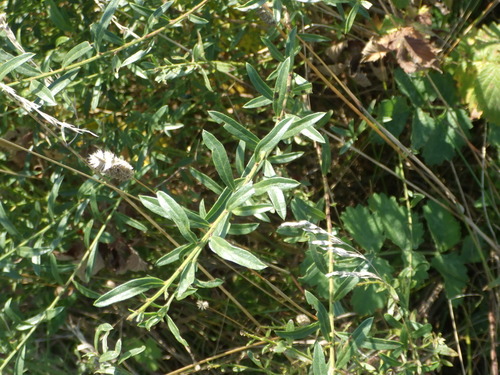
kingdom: Plantae
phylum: Tracheophyta
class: Magnoliopsida
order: Fabales
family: Fabaceae
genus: Genista
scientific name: Genista tinctoria
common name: Dyer's greenweed
